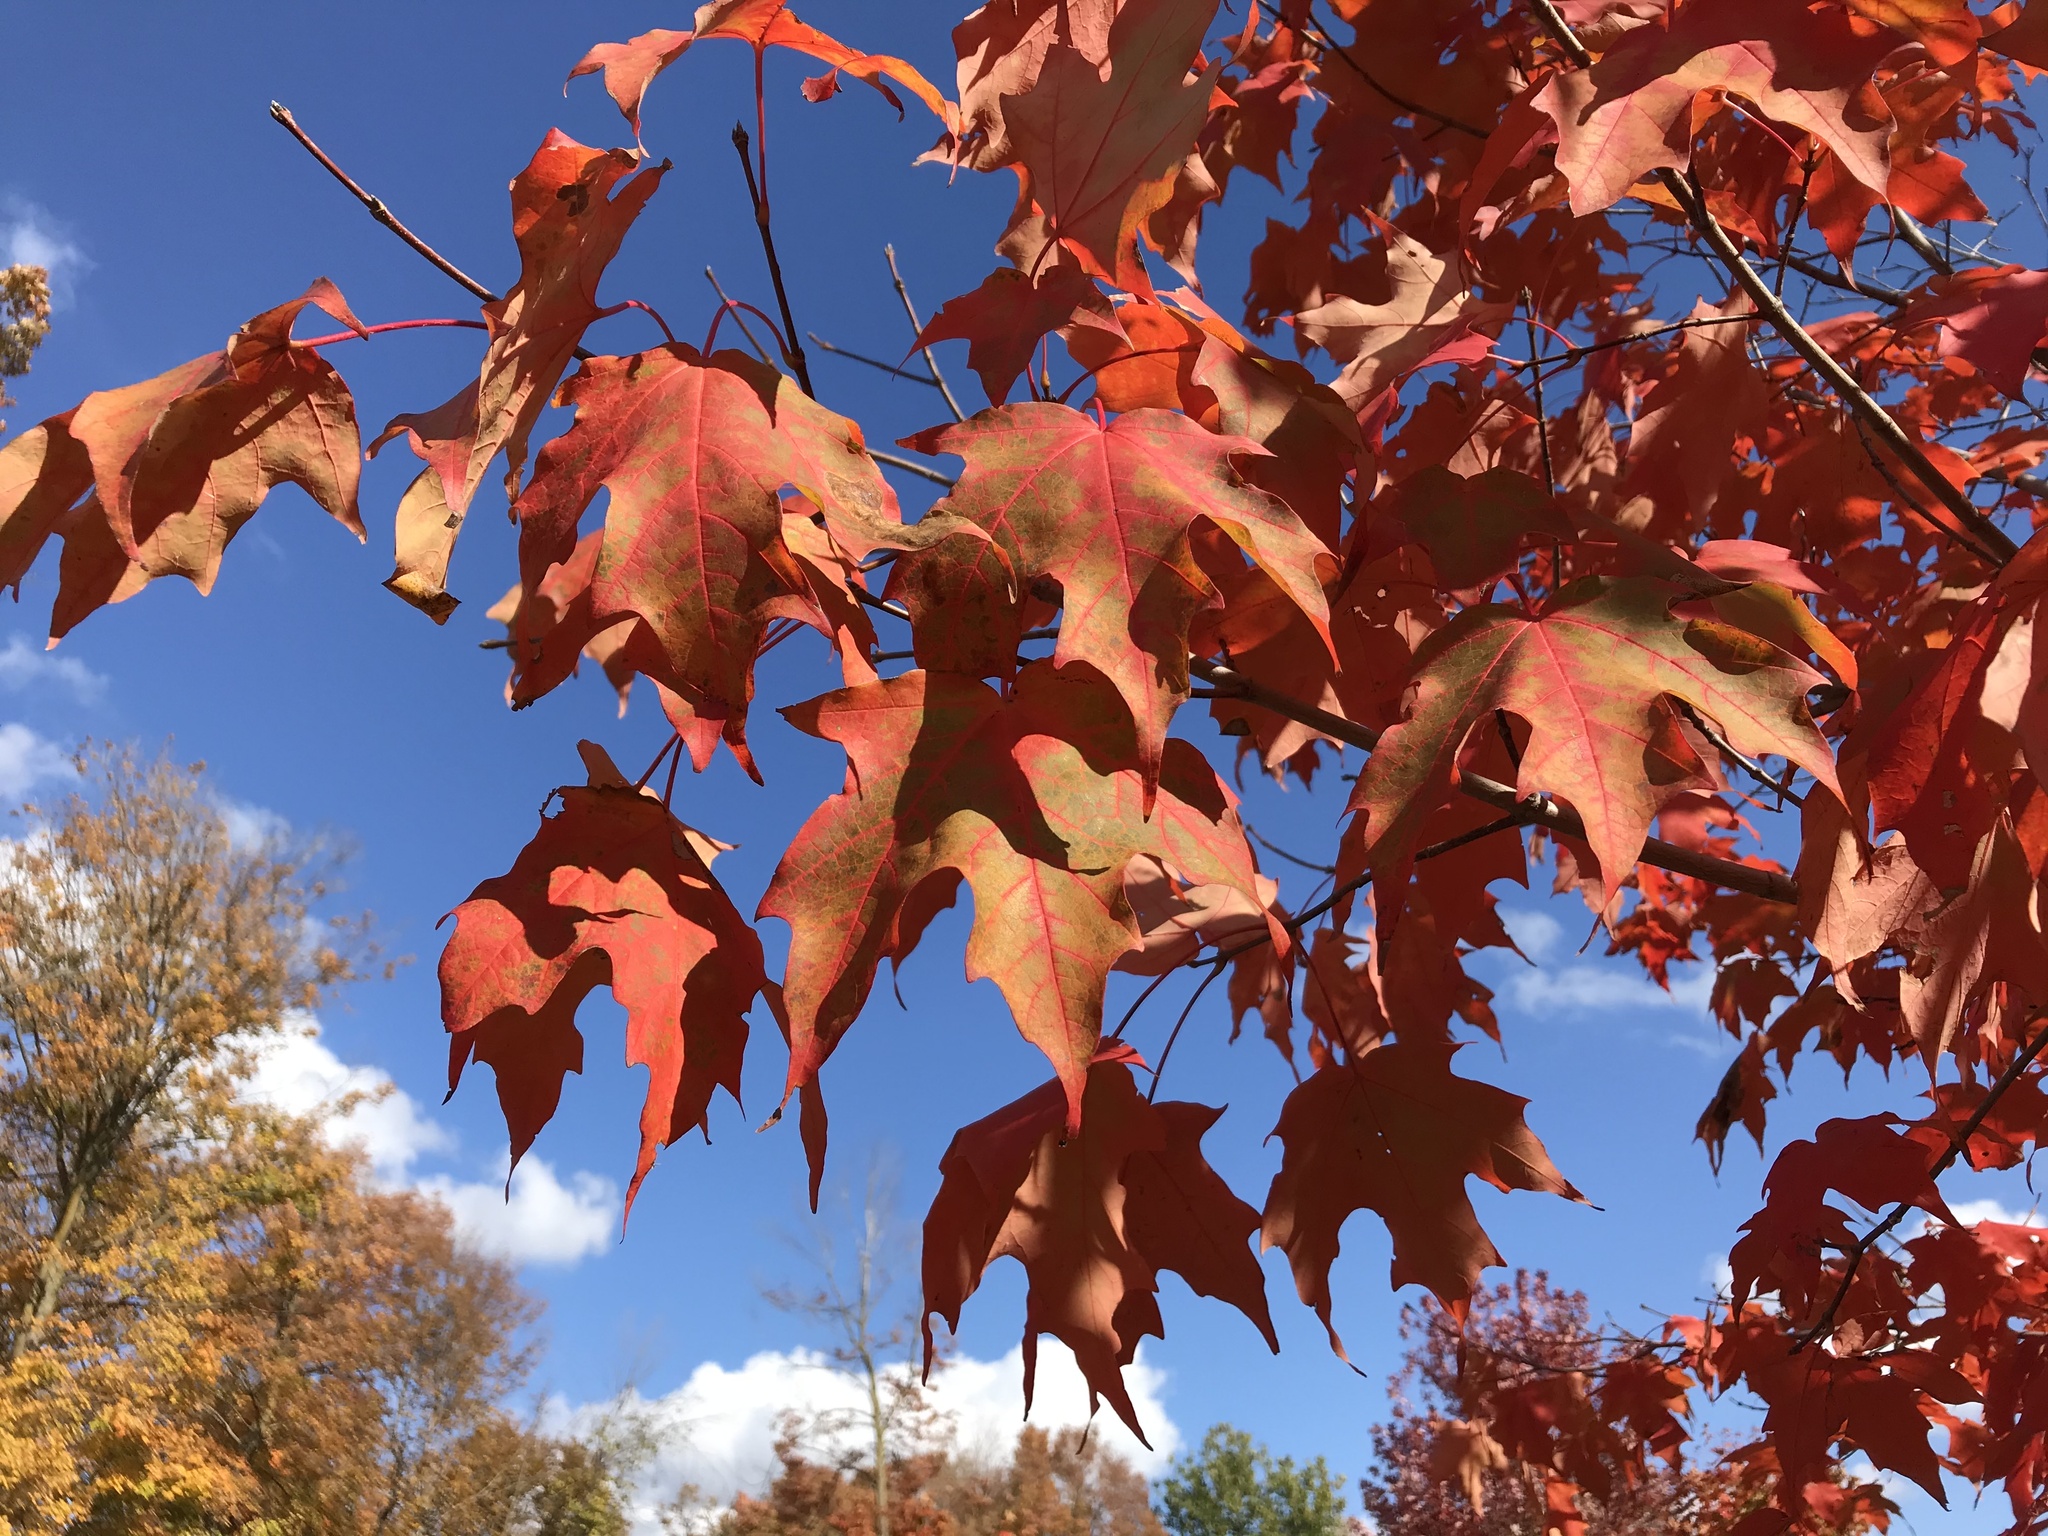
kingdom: Plantae
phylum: Tracheophyta
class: Magnoliopsida
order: Sapindales
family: Sapindaceae
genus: Acer
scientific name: Acer saccharum
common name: Sugar maple
